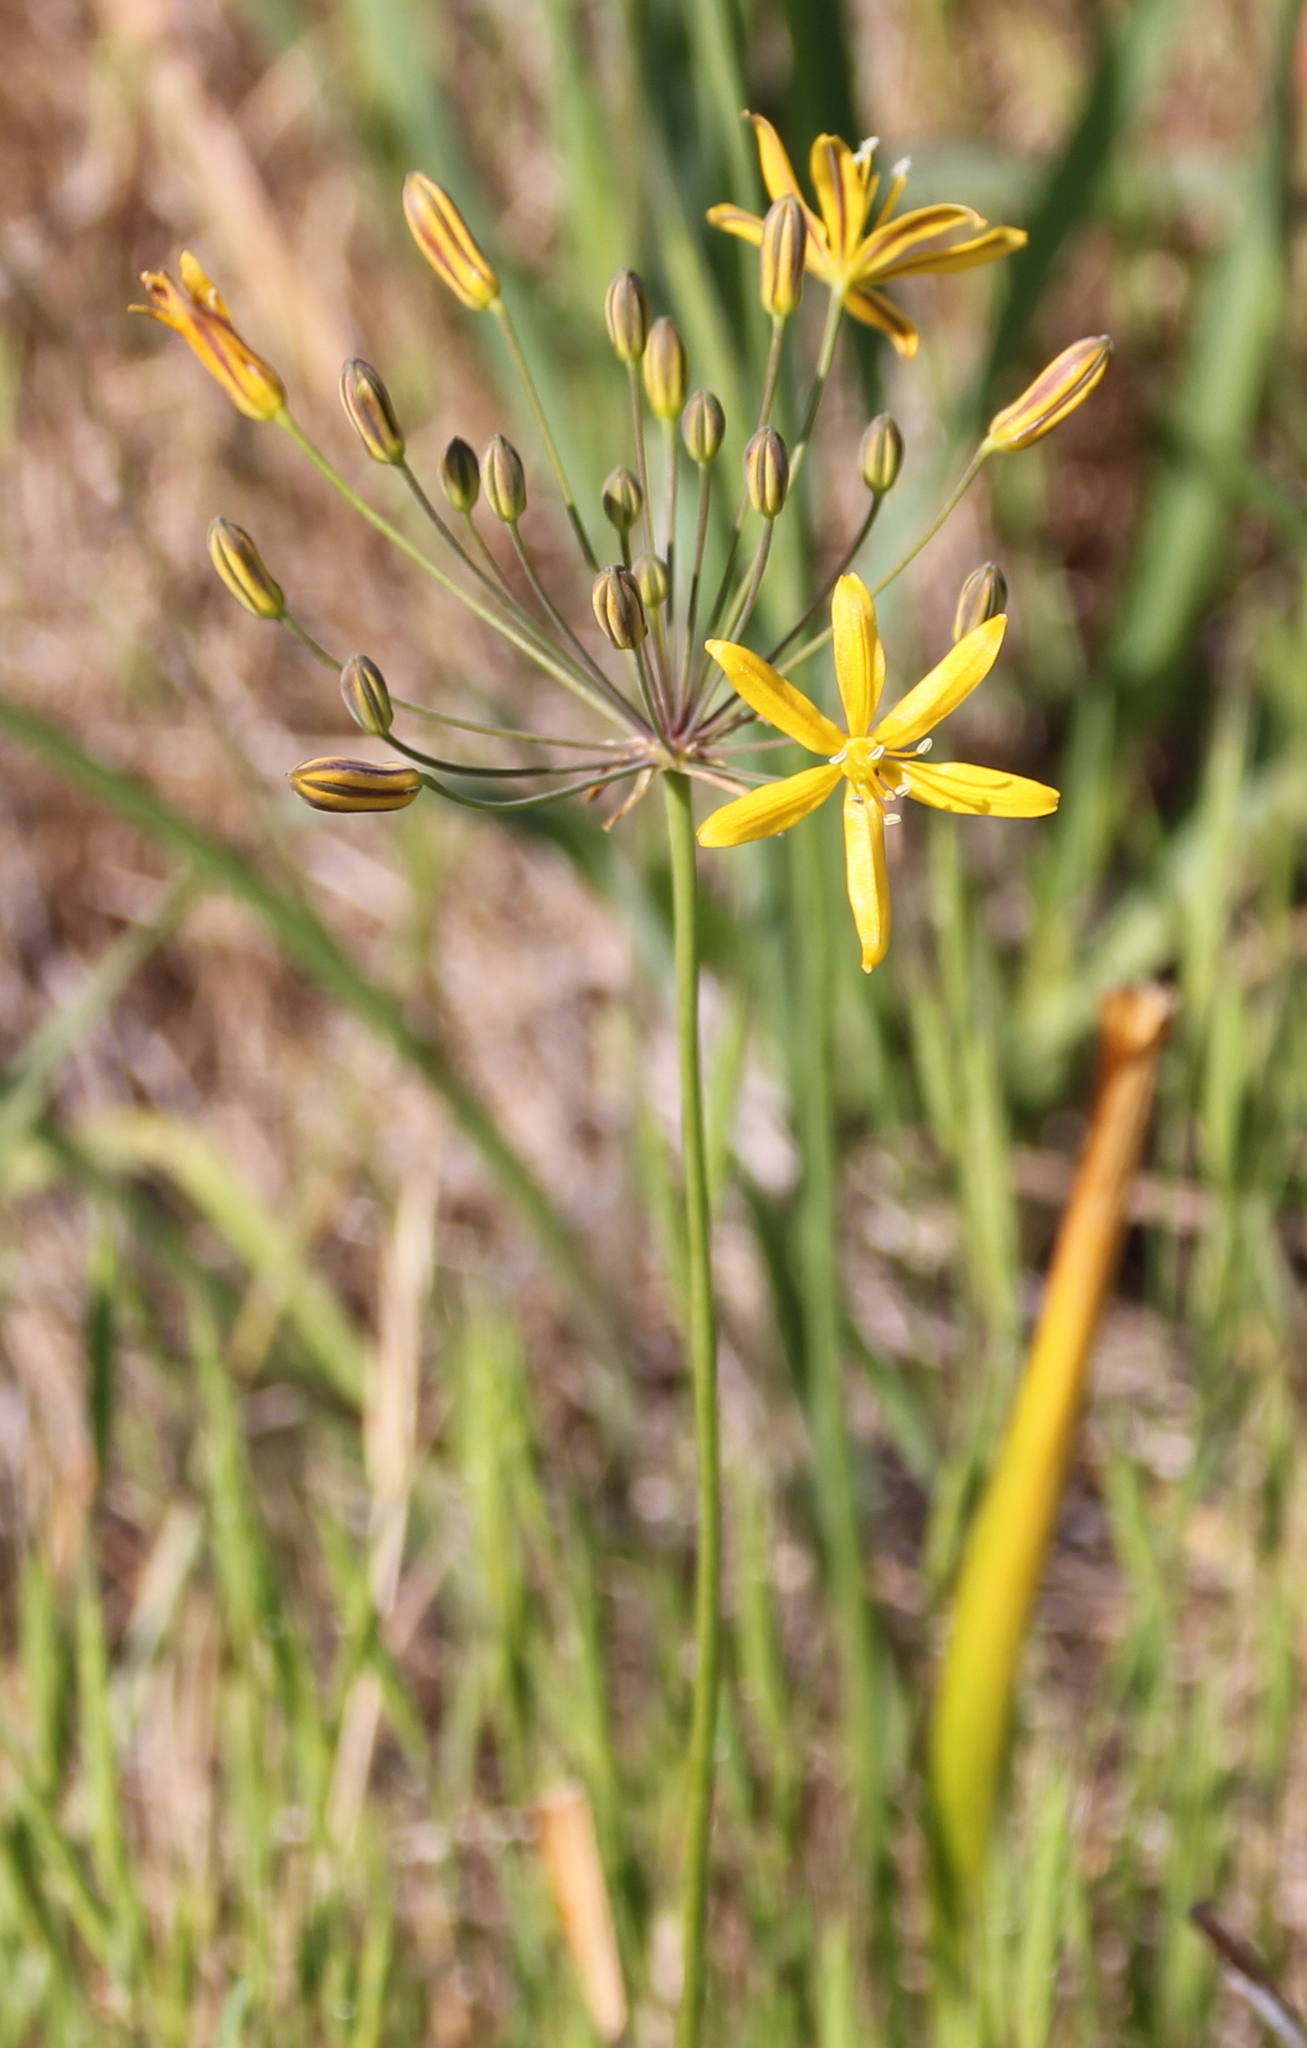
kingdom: Plantae
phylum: Tracheophyta
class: Liliopsida
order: Asparagales
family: Asparagaceae
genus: Bloomeria
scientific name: Bloomeria crocea
